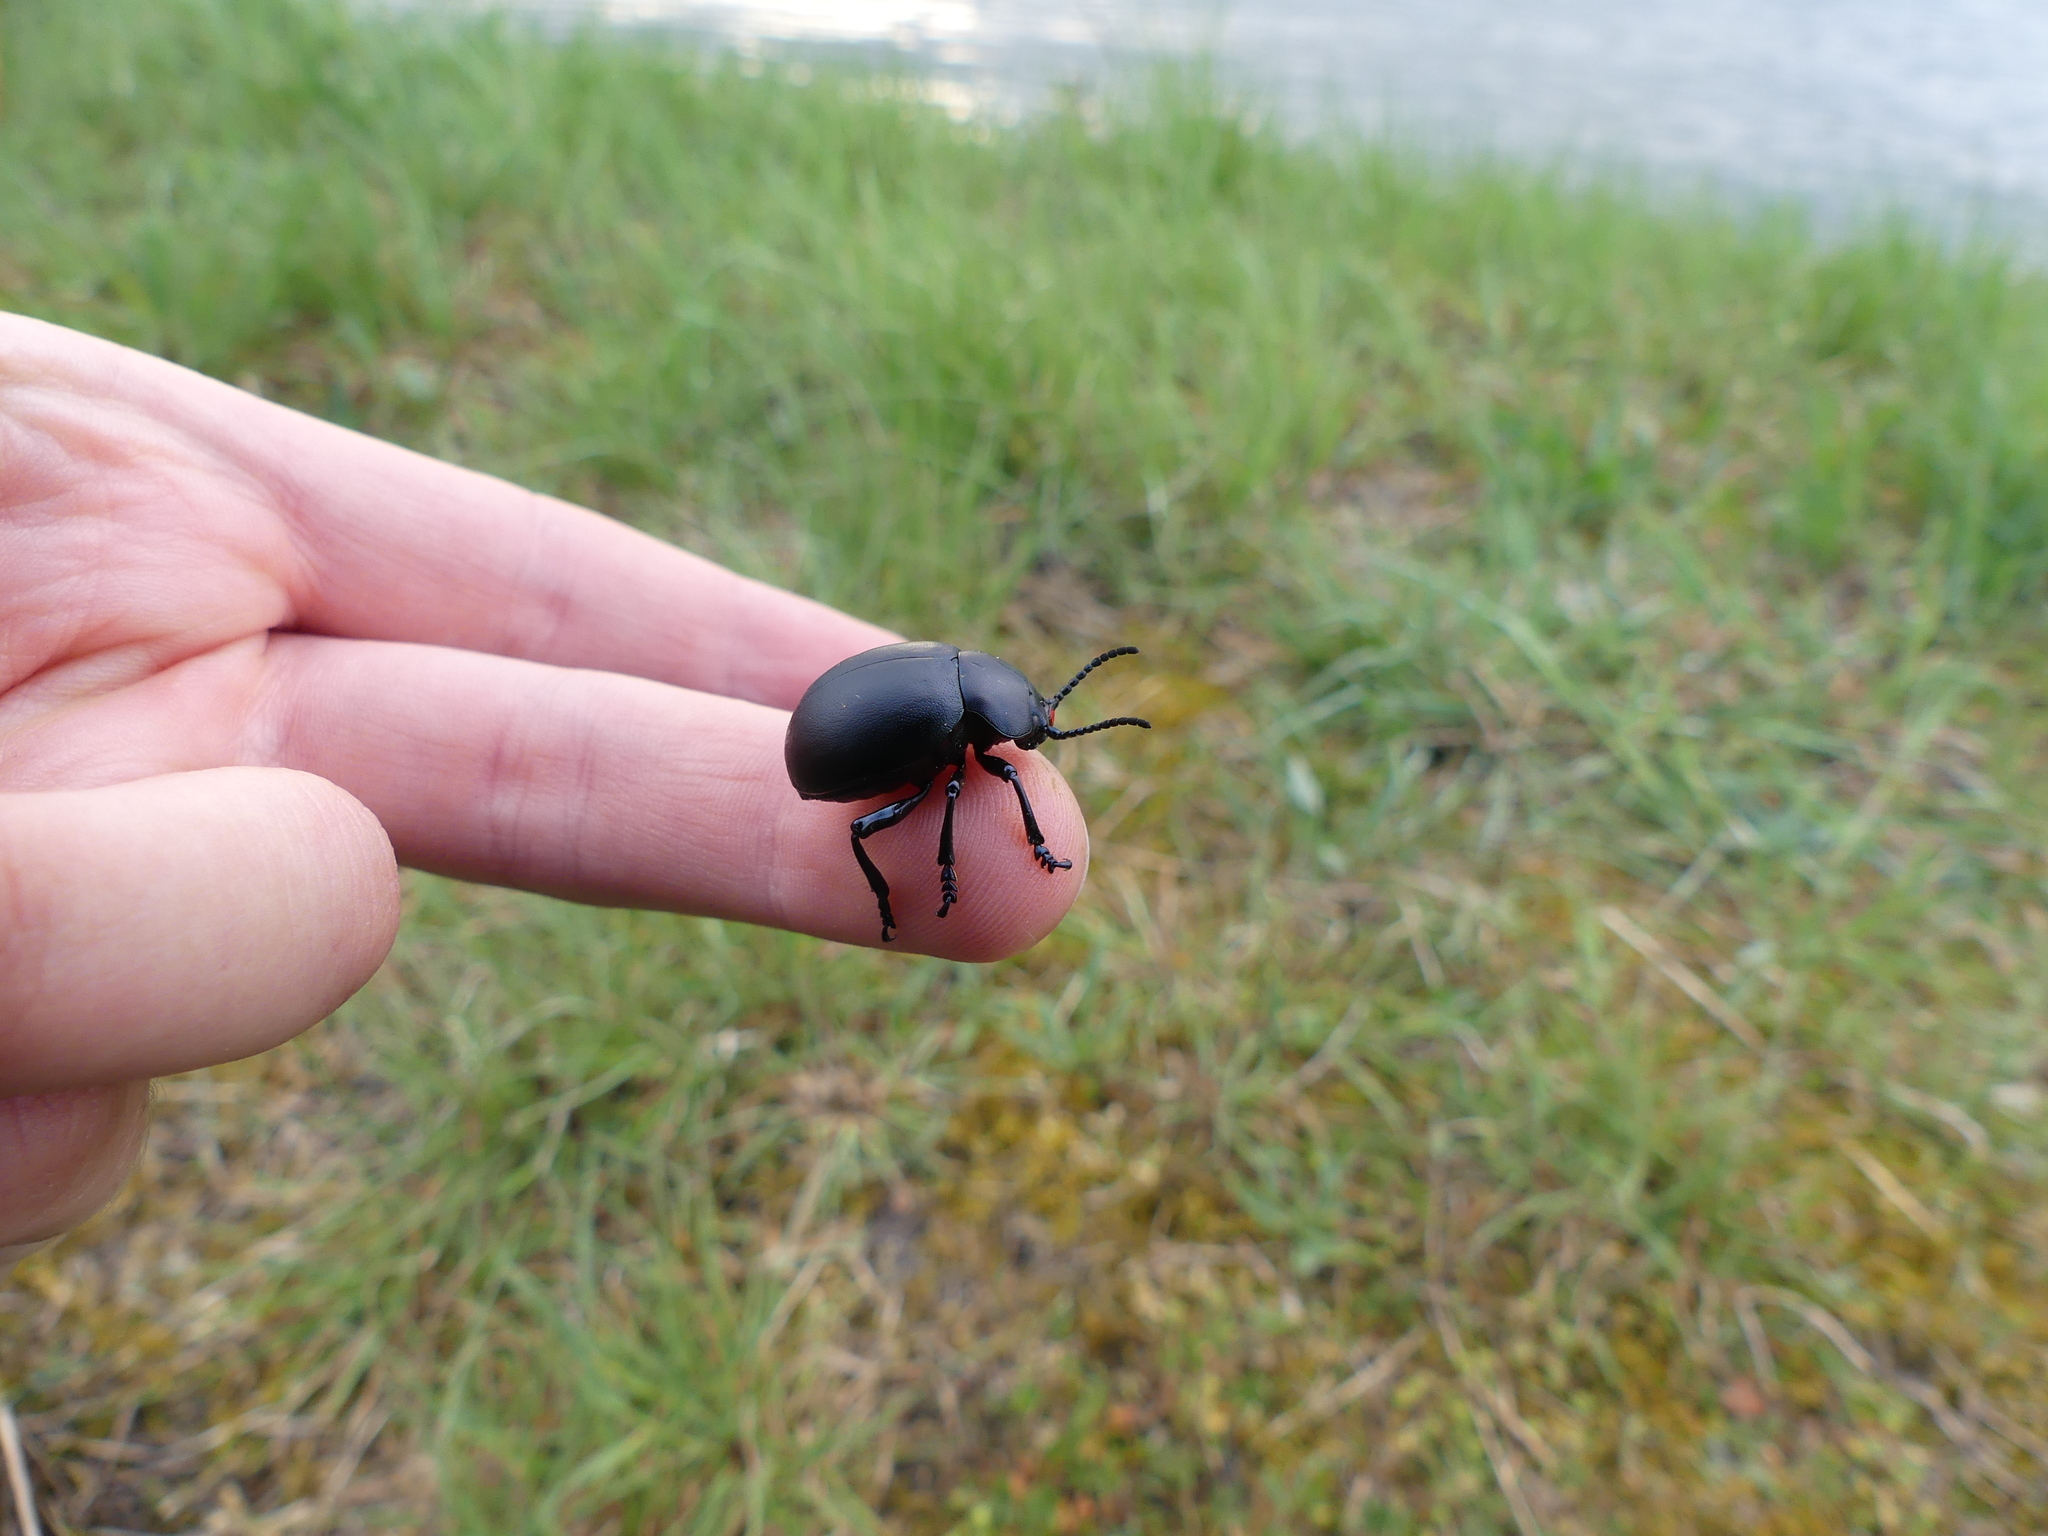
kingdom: Animalia
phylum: Arthropoda
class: Insecta
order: Coleoptera
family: Chrysomelidae
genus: Timarcha
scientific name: Timarcha tenebricosa
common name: Bloody-nosed beetle
